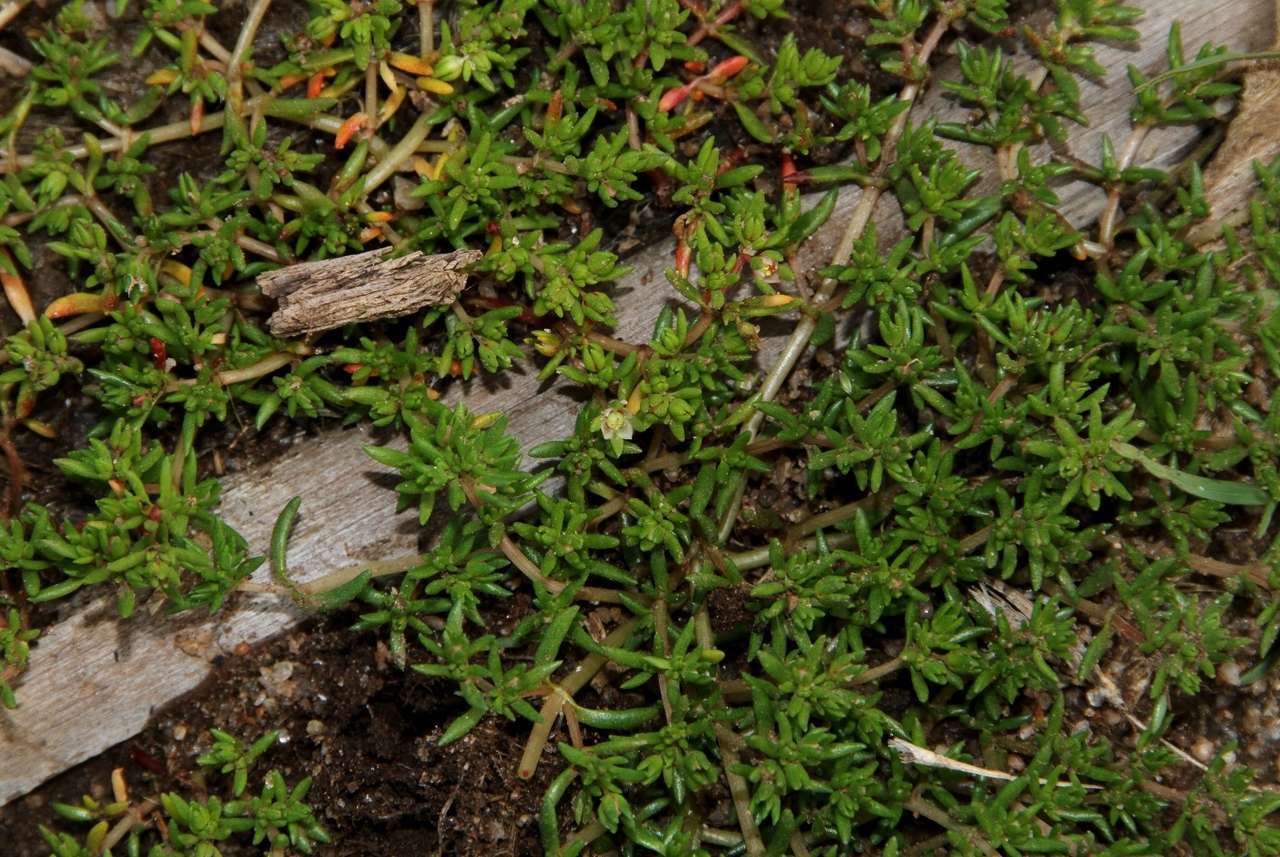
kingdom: Plantae
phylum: Tracheophyta
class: Magnoliopsida
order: Saxifragales
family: Crassulaceae
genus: Crassula
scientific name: Crassula decumbens
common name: Scilly pigmyweed
